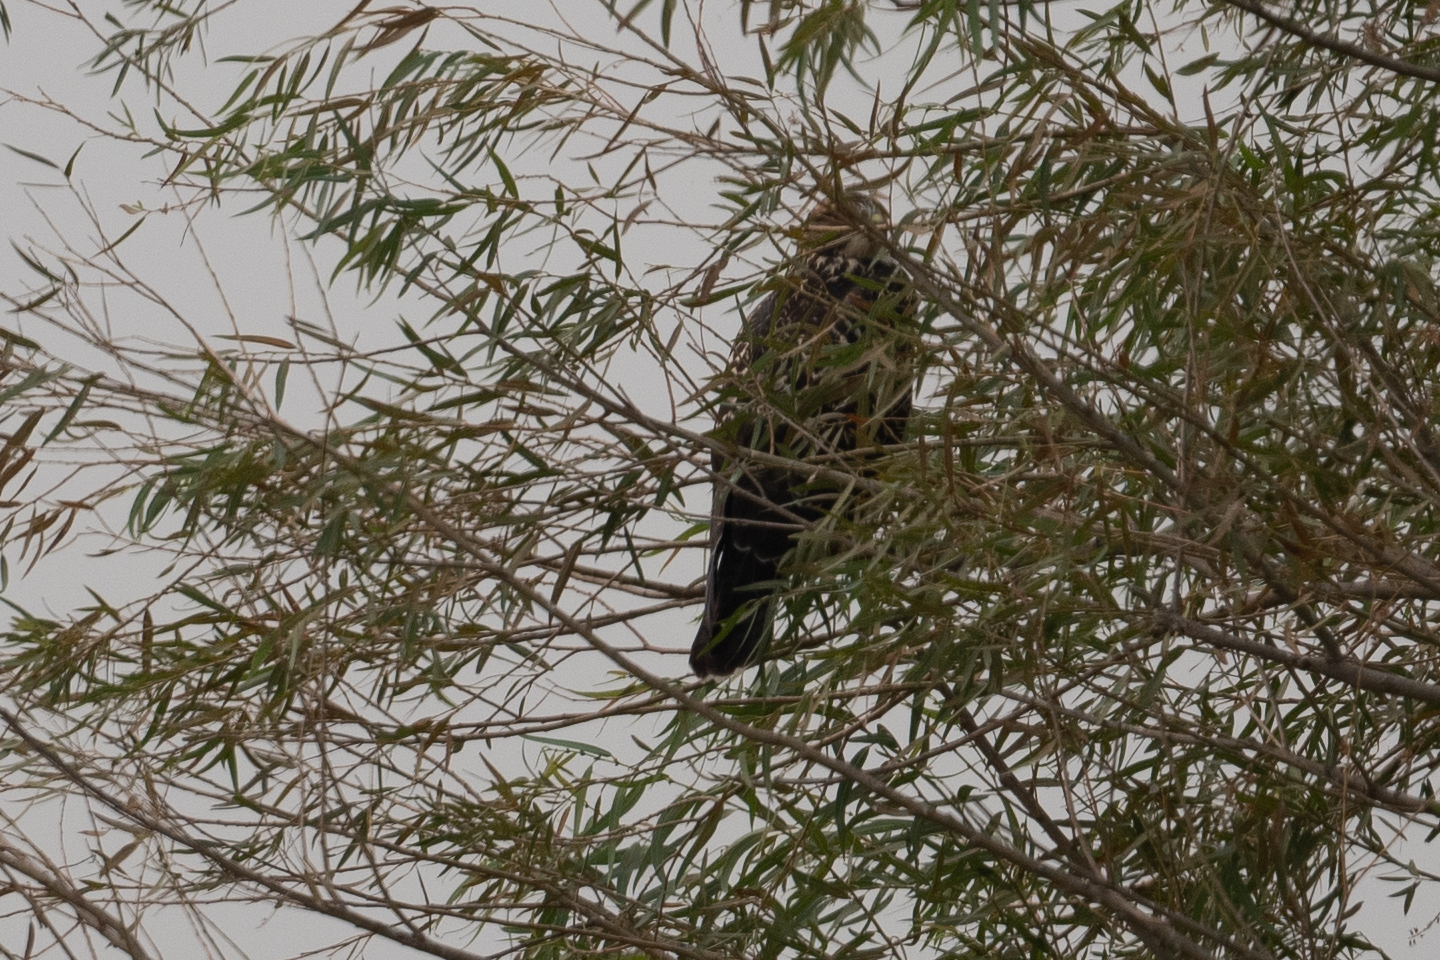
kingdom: Animalia
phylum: Chordata
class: Aves
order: Accipitriformes
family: Accipitridae
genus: Buteo
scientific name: Buteo swainsoni
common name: Swainson's hawk
